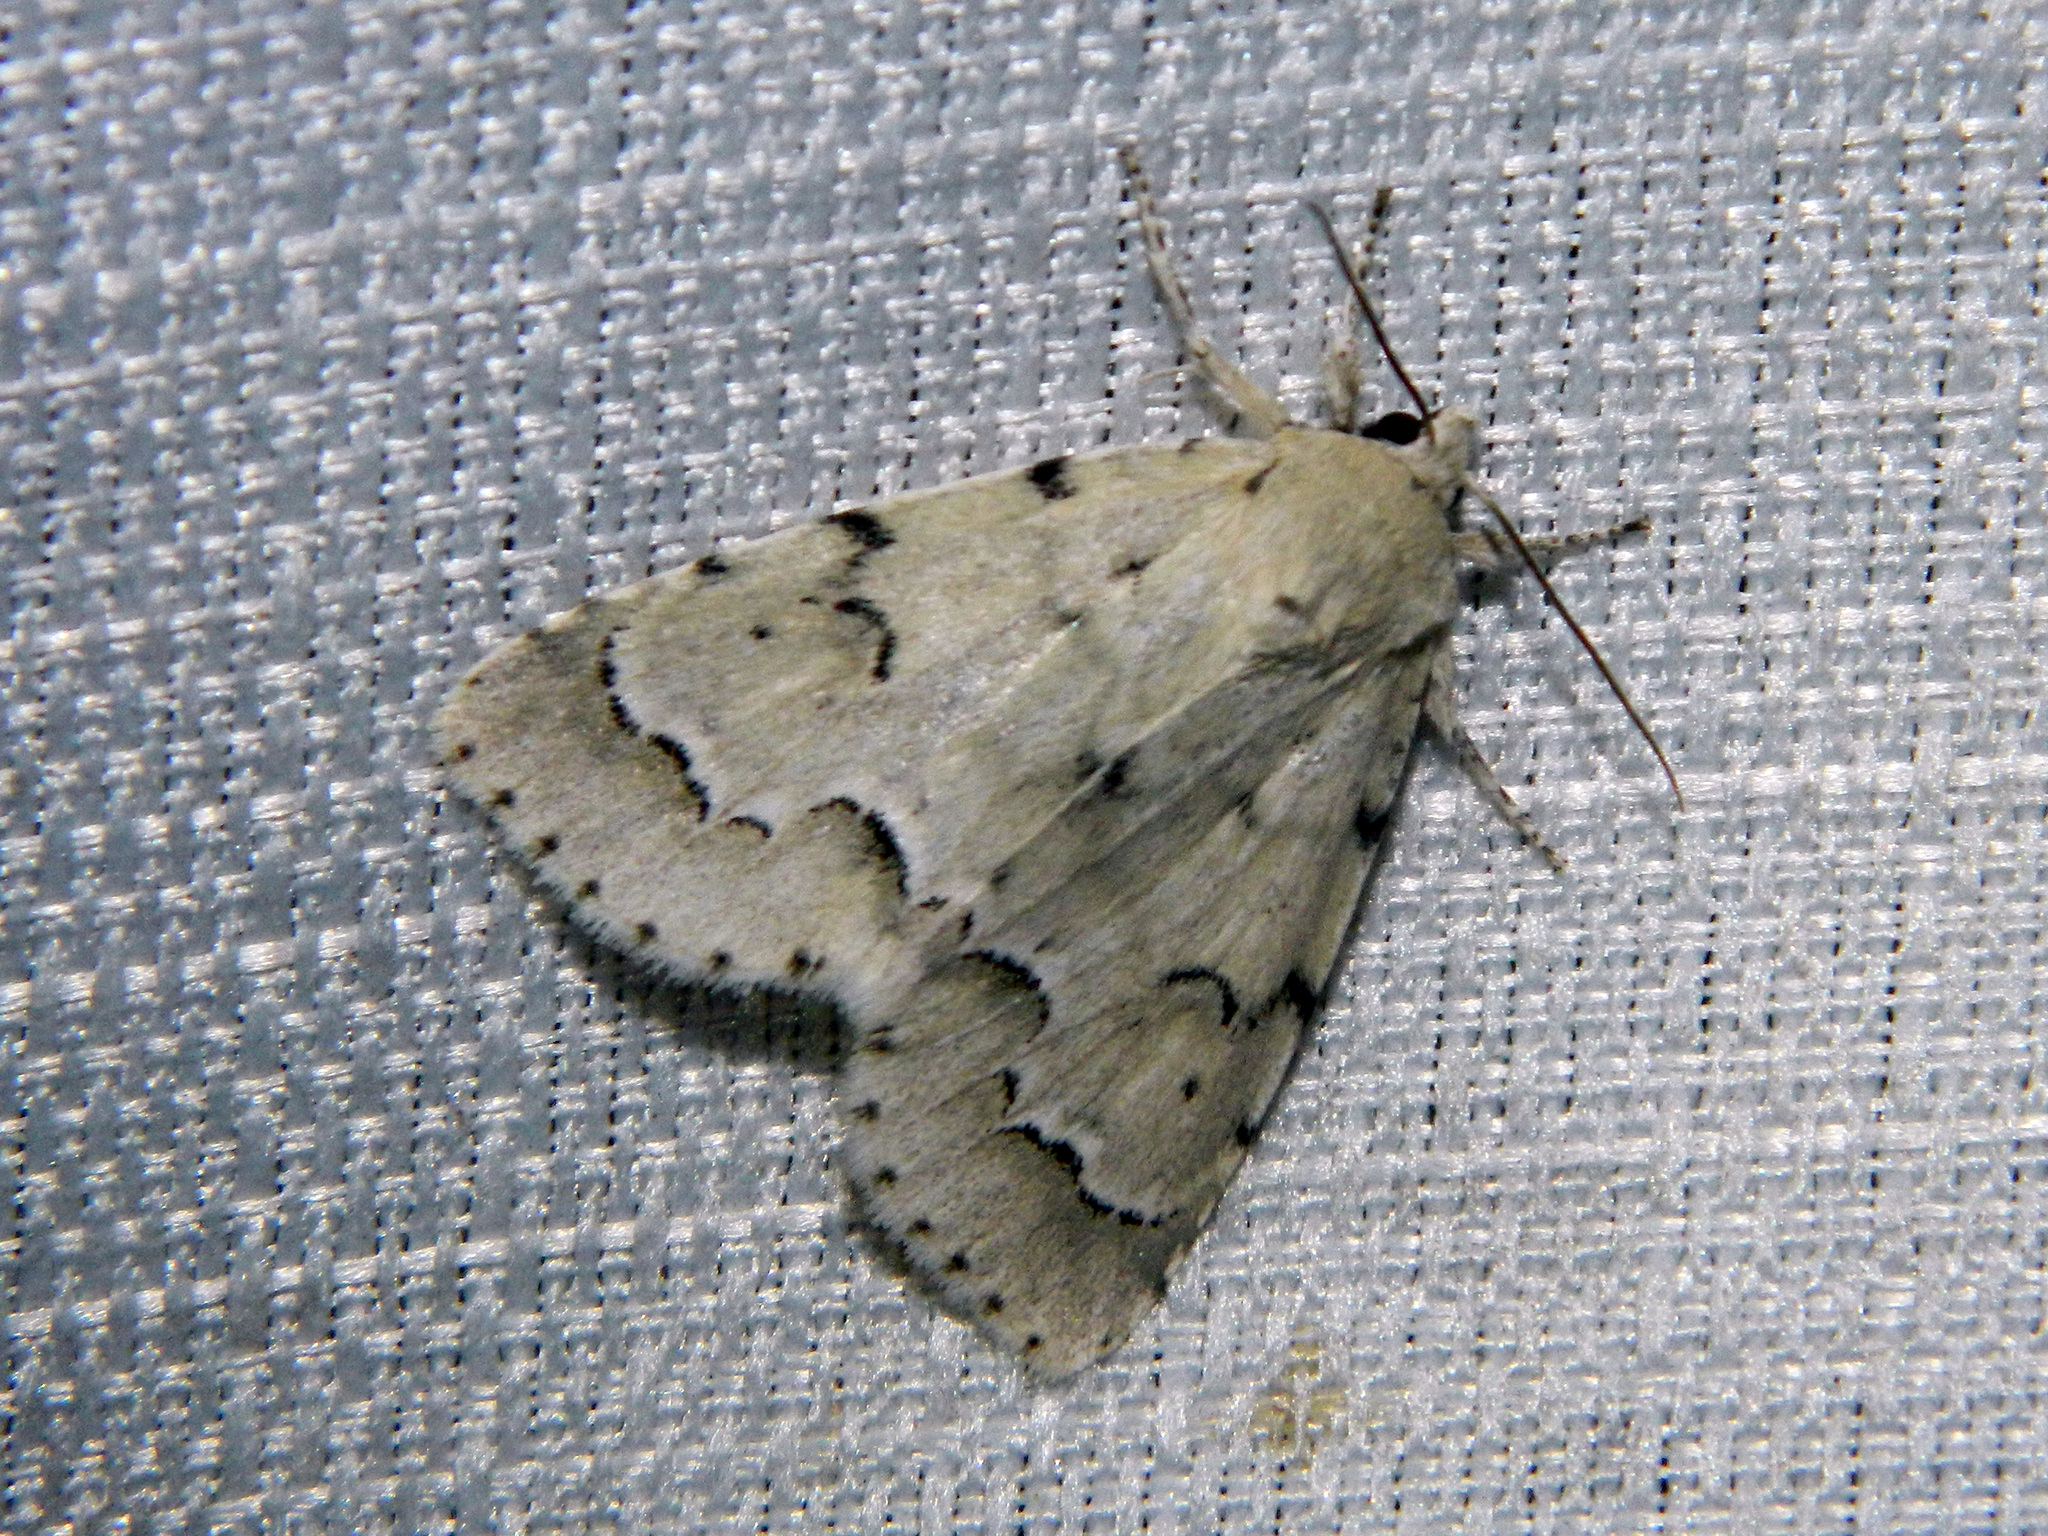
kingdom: Animalia
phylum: Arthropoda
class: Insecta
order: Lepidoptera
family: Noctuidae
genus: Acronicta
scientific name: Acronicta innotata
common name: Unmarked dagger
